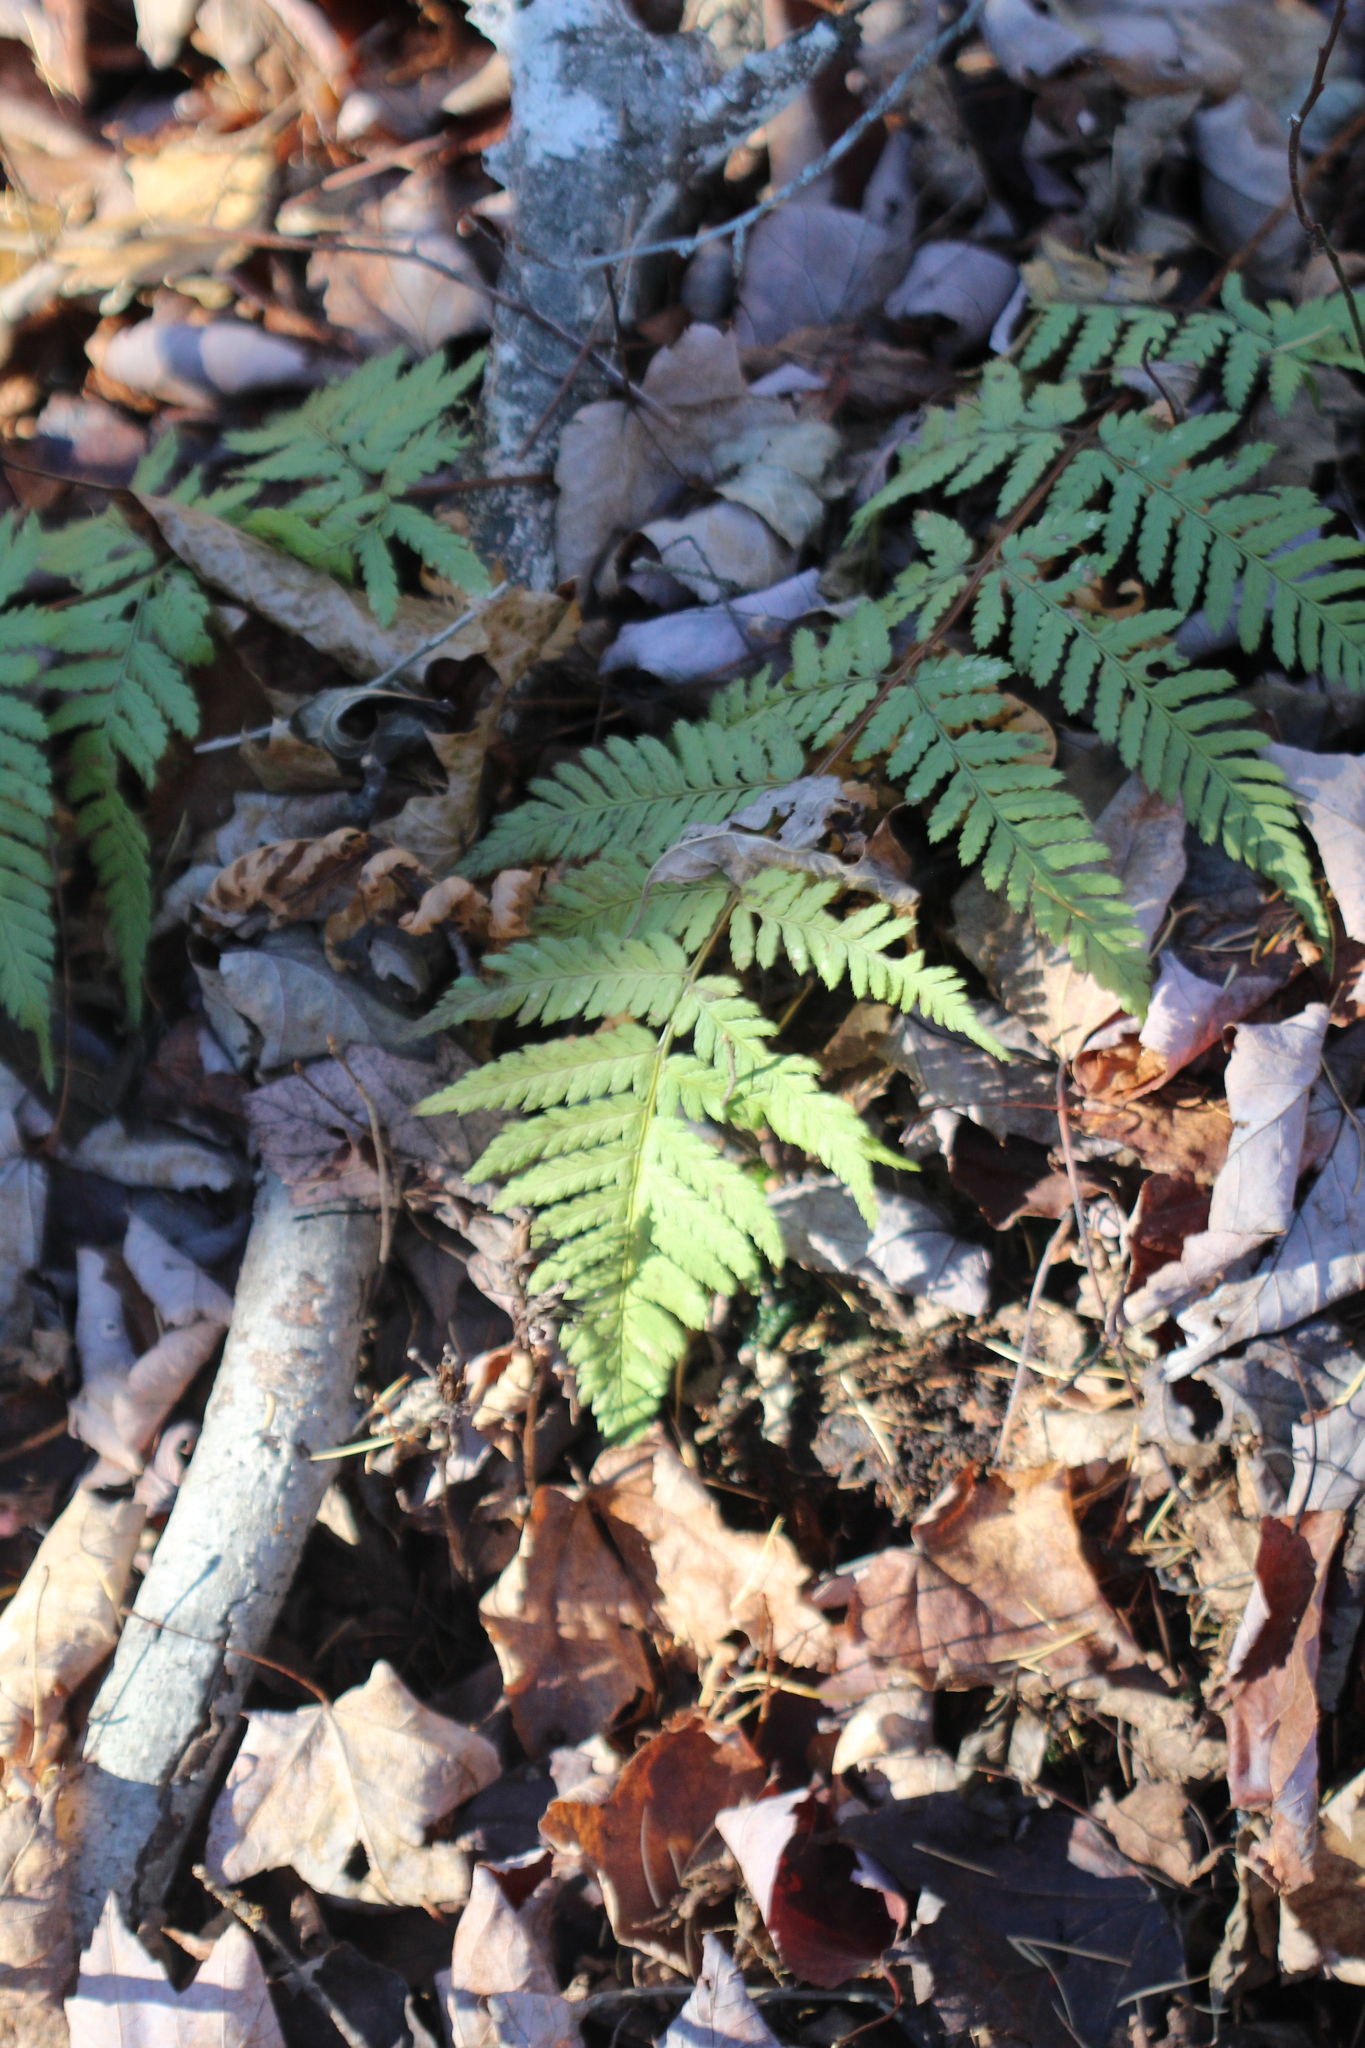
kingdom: Plantae
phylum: Tracheophyta
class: Polypodiopsida
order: Polypodiales
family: Dryopteridaceae
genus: Dryopteris
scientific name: Dryopteris carthusiana
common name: Narrow buckler-fern
